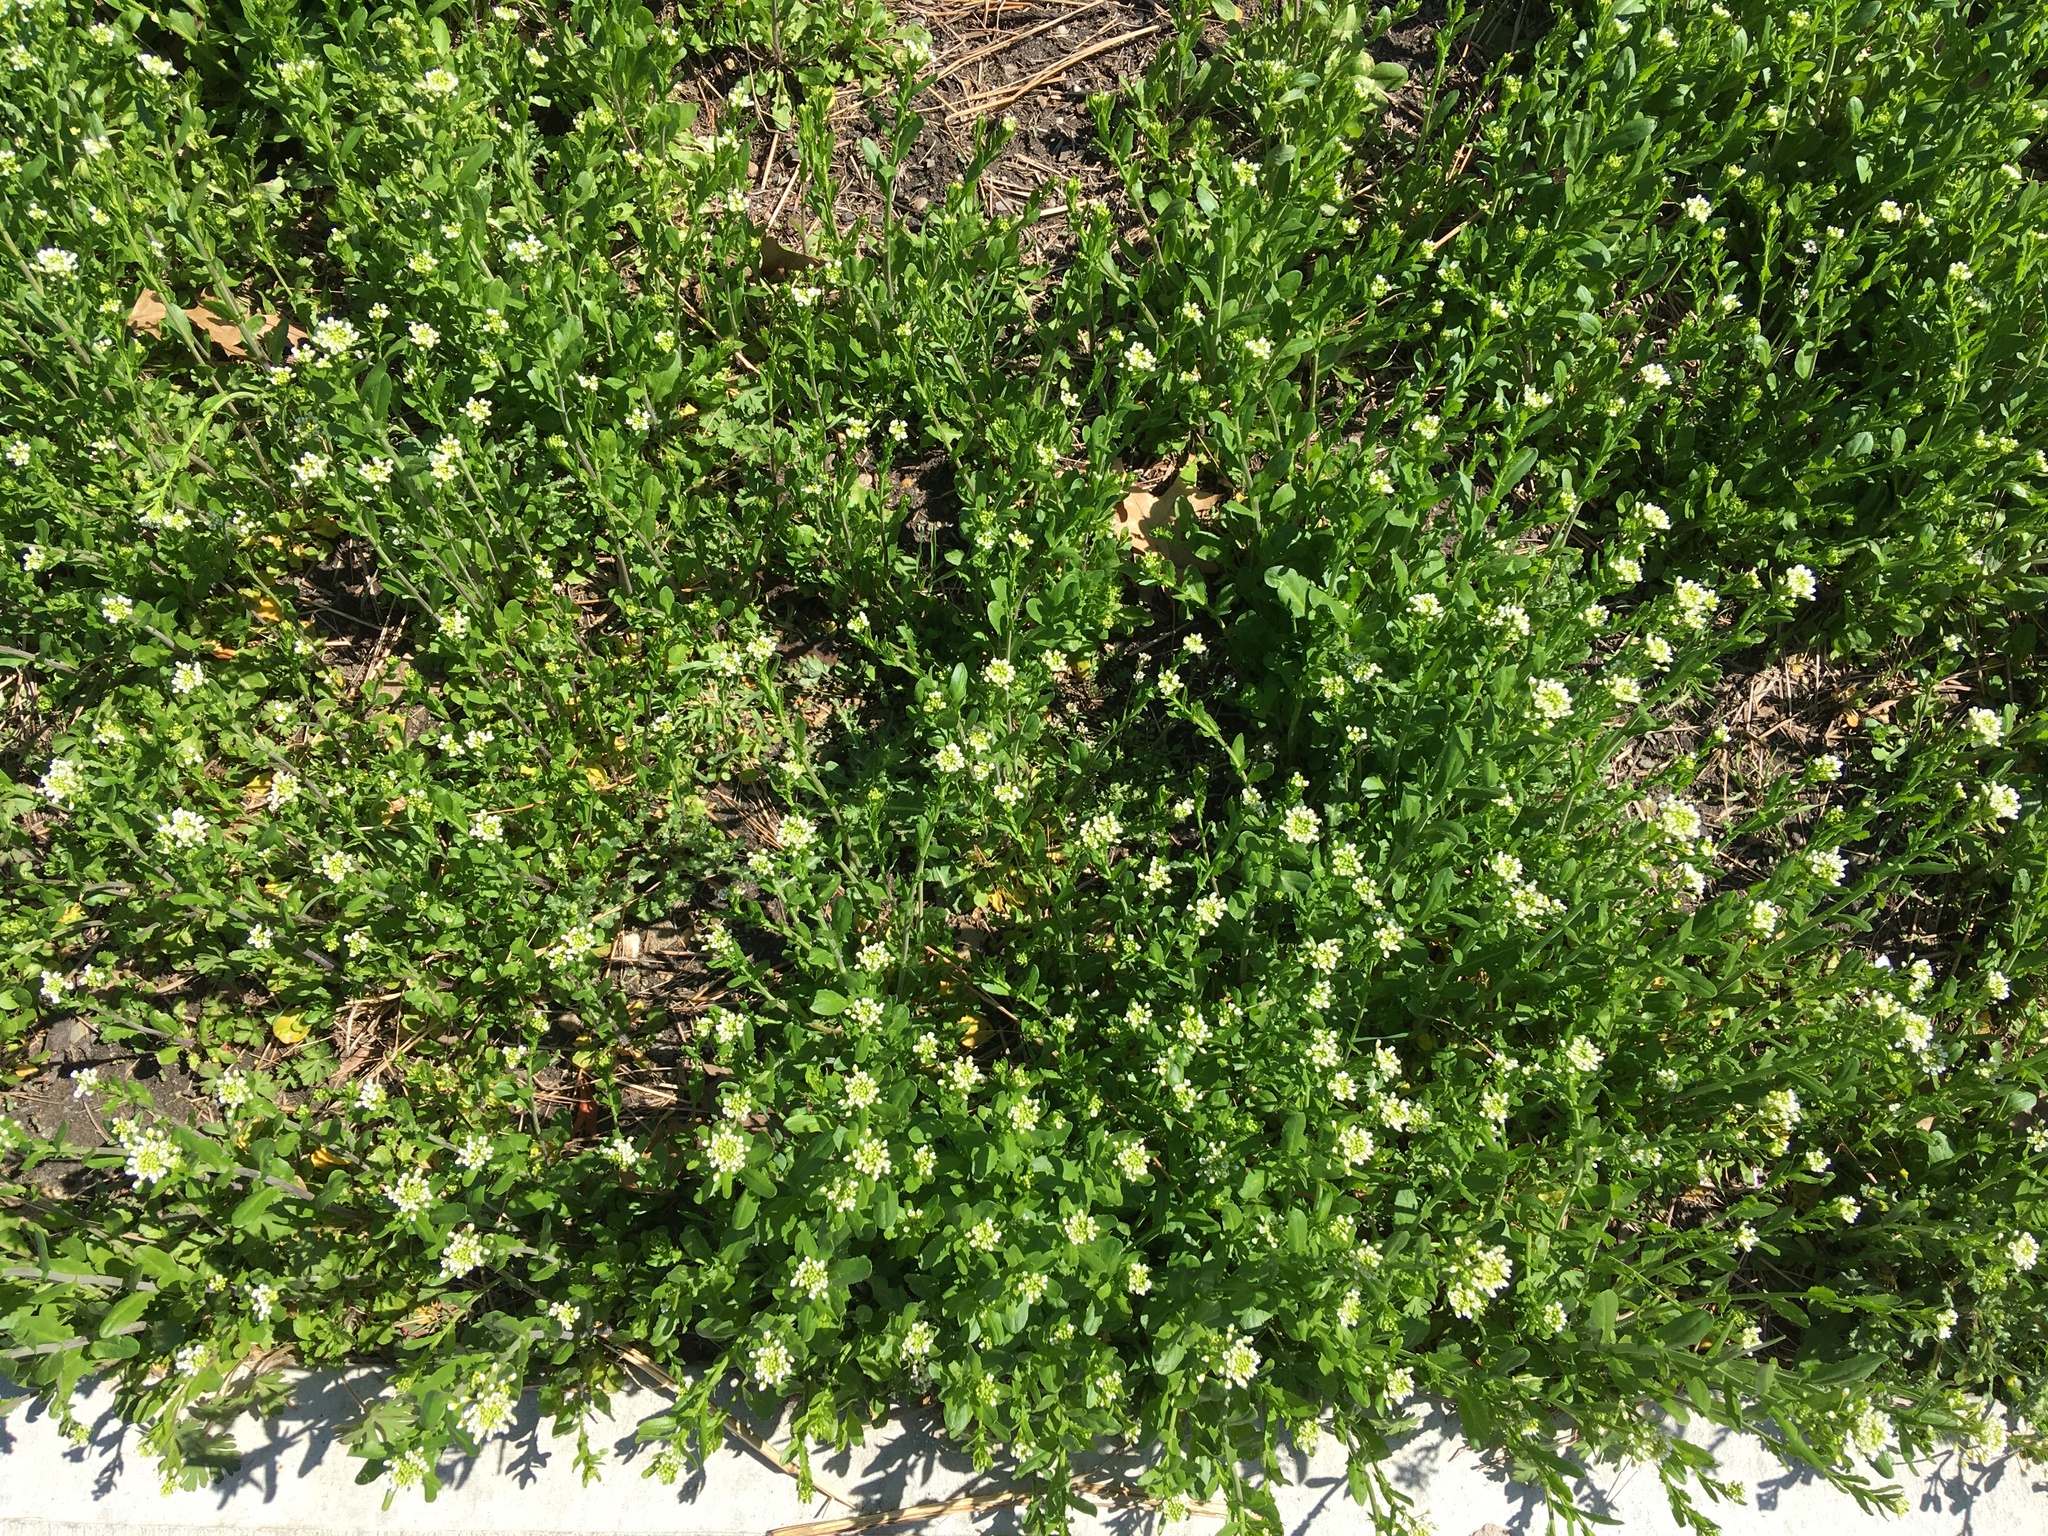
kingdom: Plantae
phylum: Tracheophyta
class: Magnoliopsida
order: Brassicales
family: Brassicaceae
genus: Mummenhoffia
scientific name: Mummenhoffia alliacea
